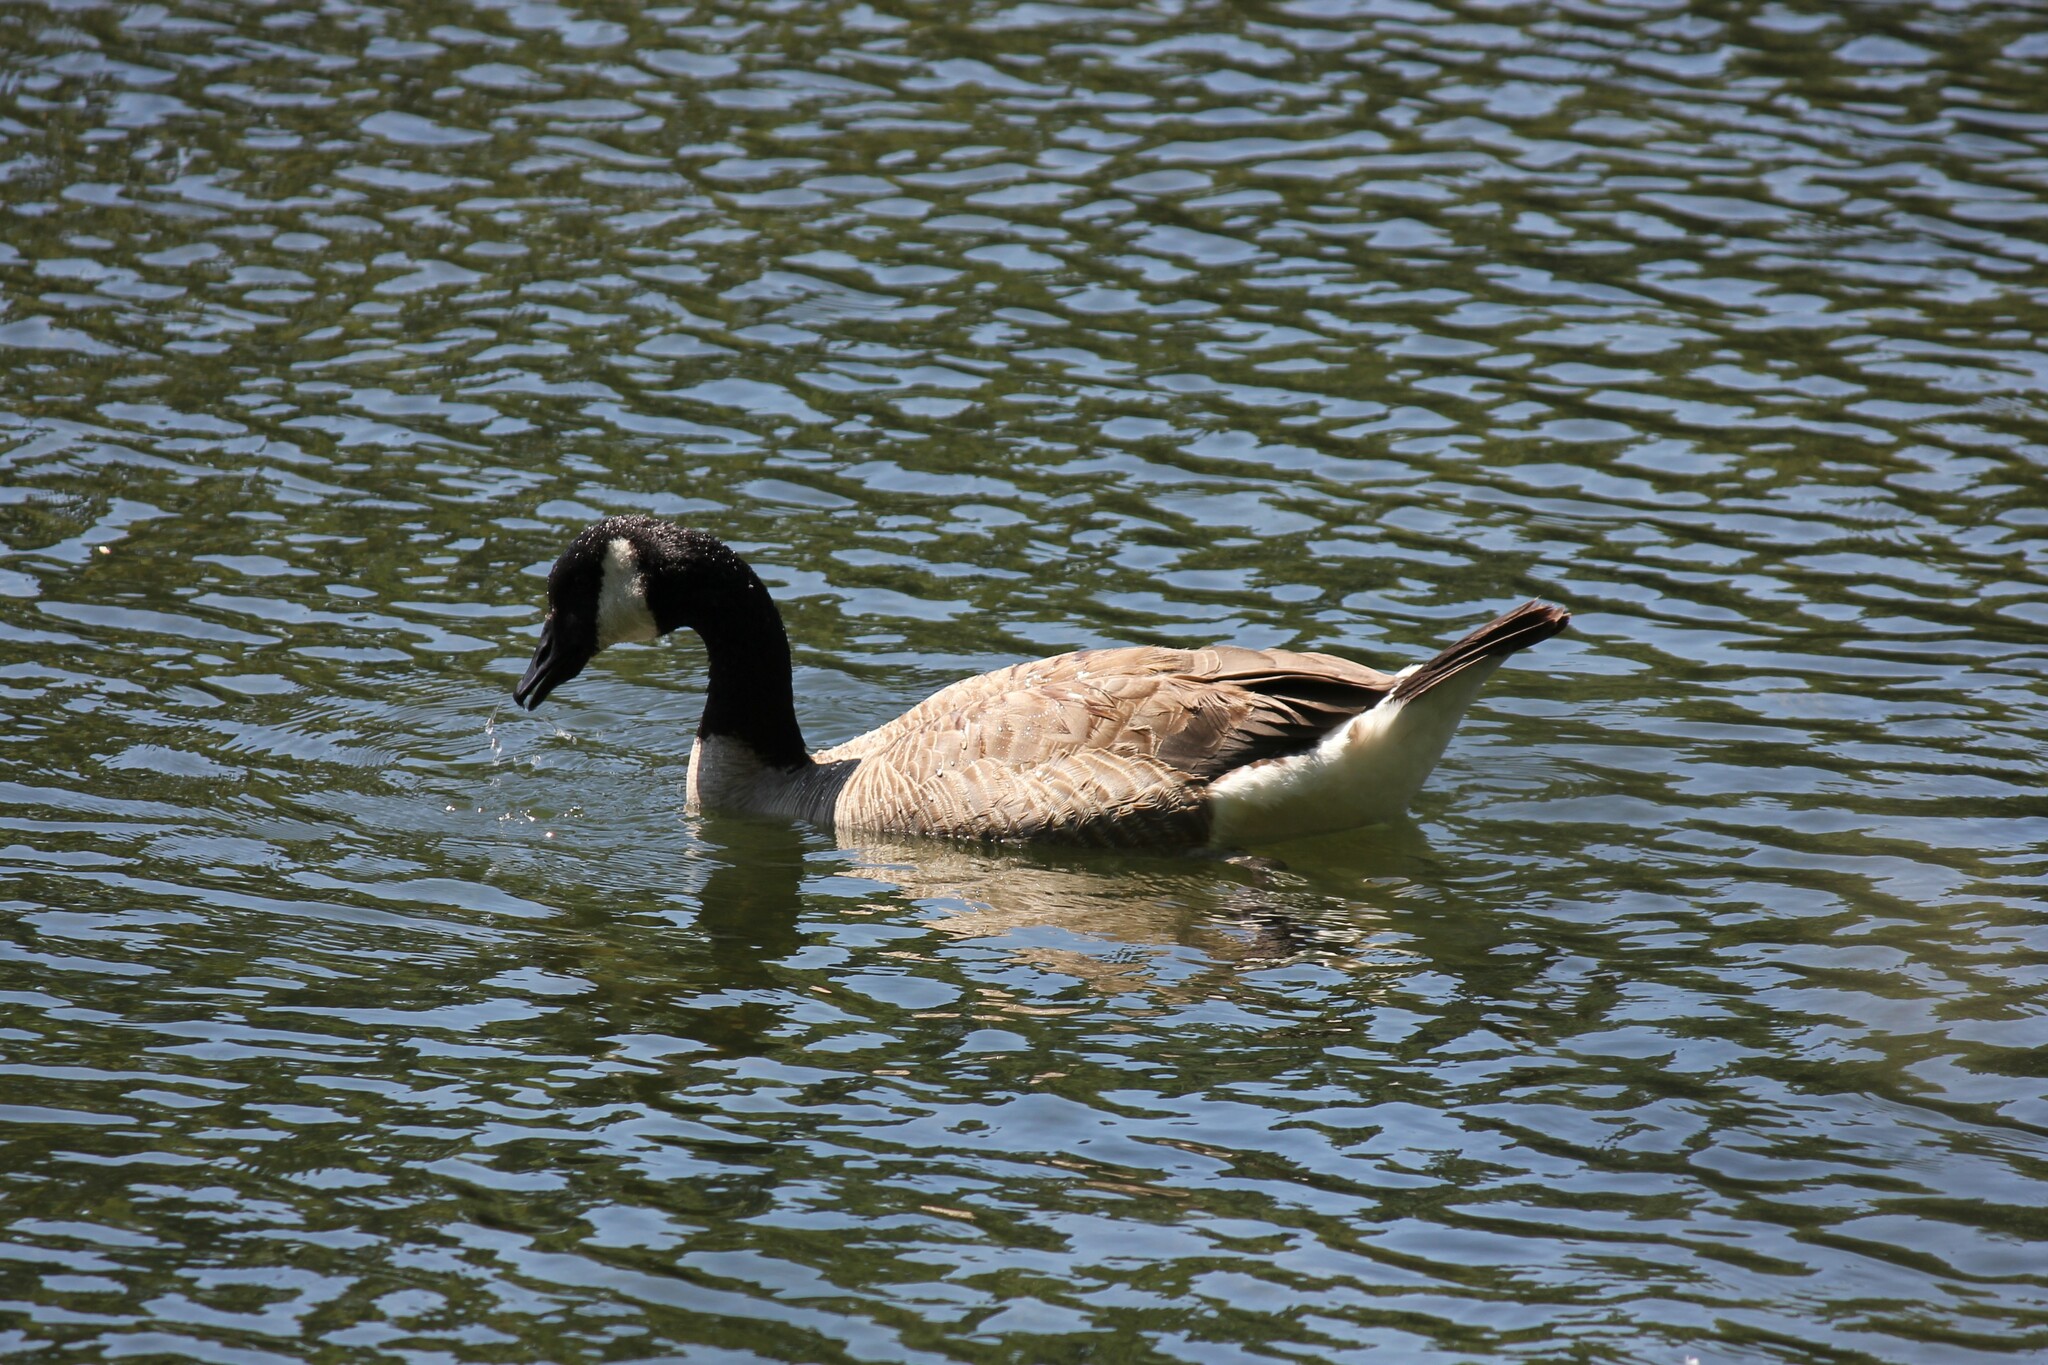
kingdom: Animalia
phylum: Chordata
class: Aves
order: Anseriformes
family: Anatidae
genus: Branta
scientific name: Branta canadensis
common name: Canada goose
